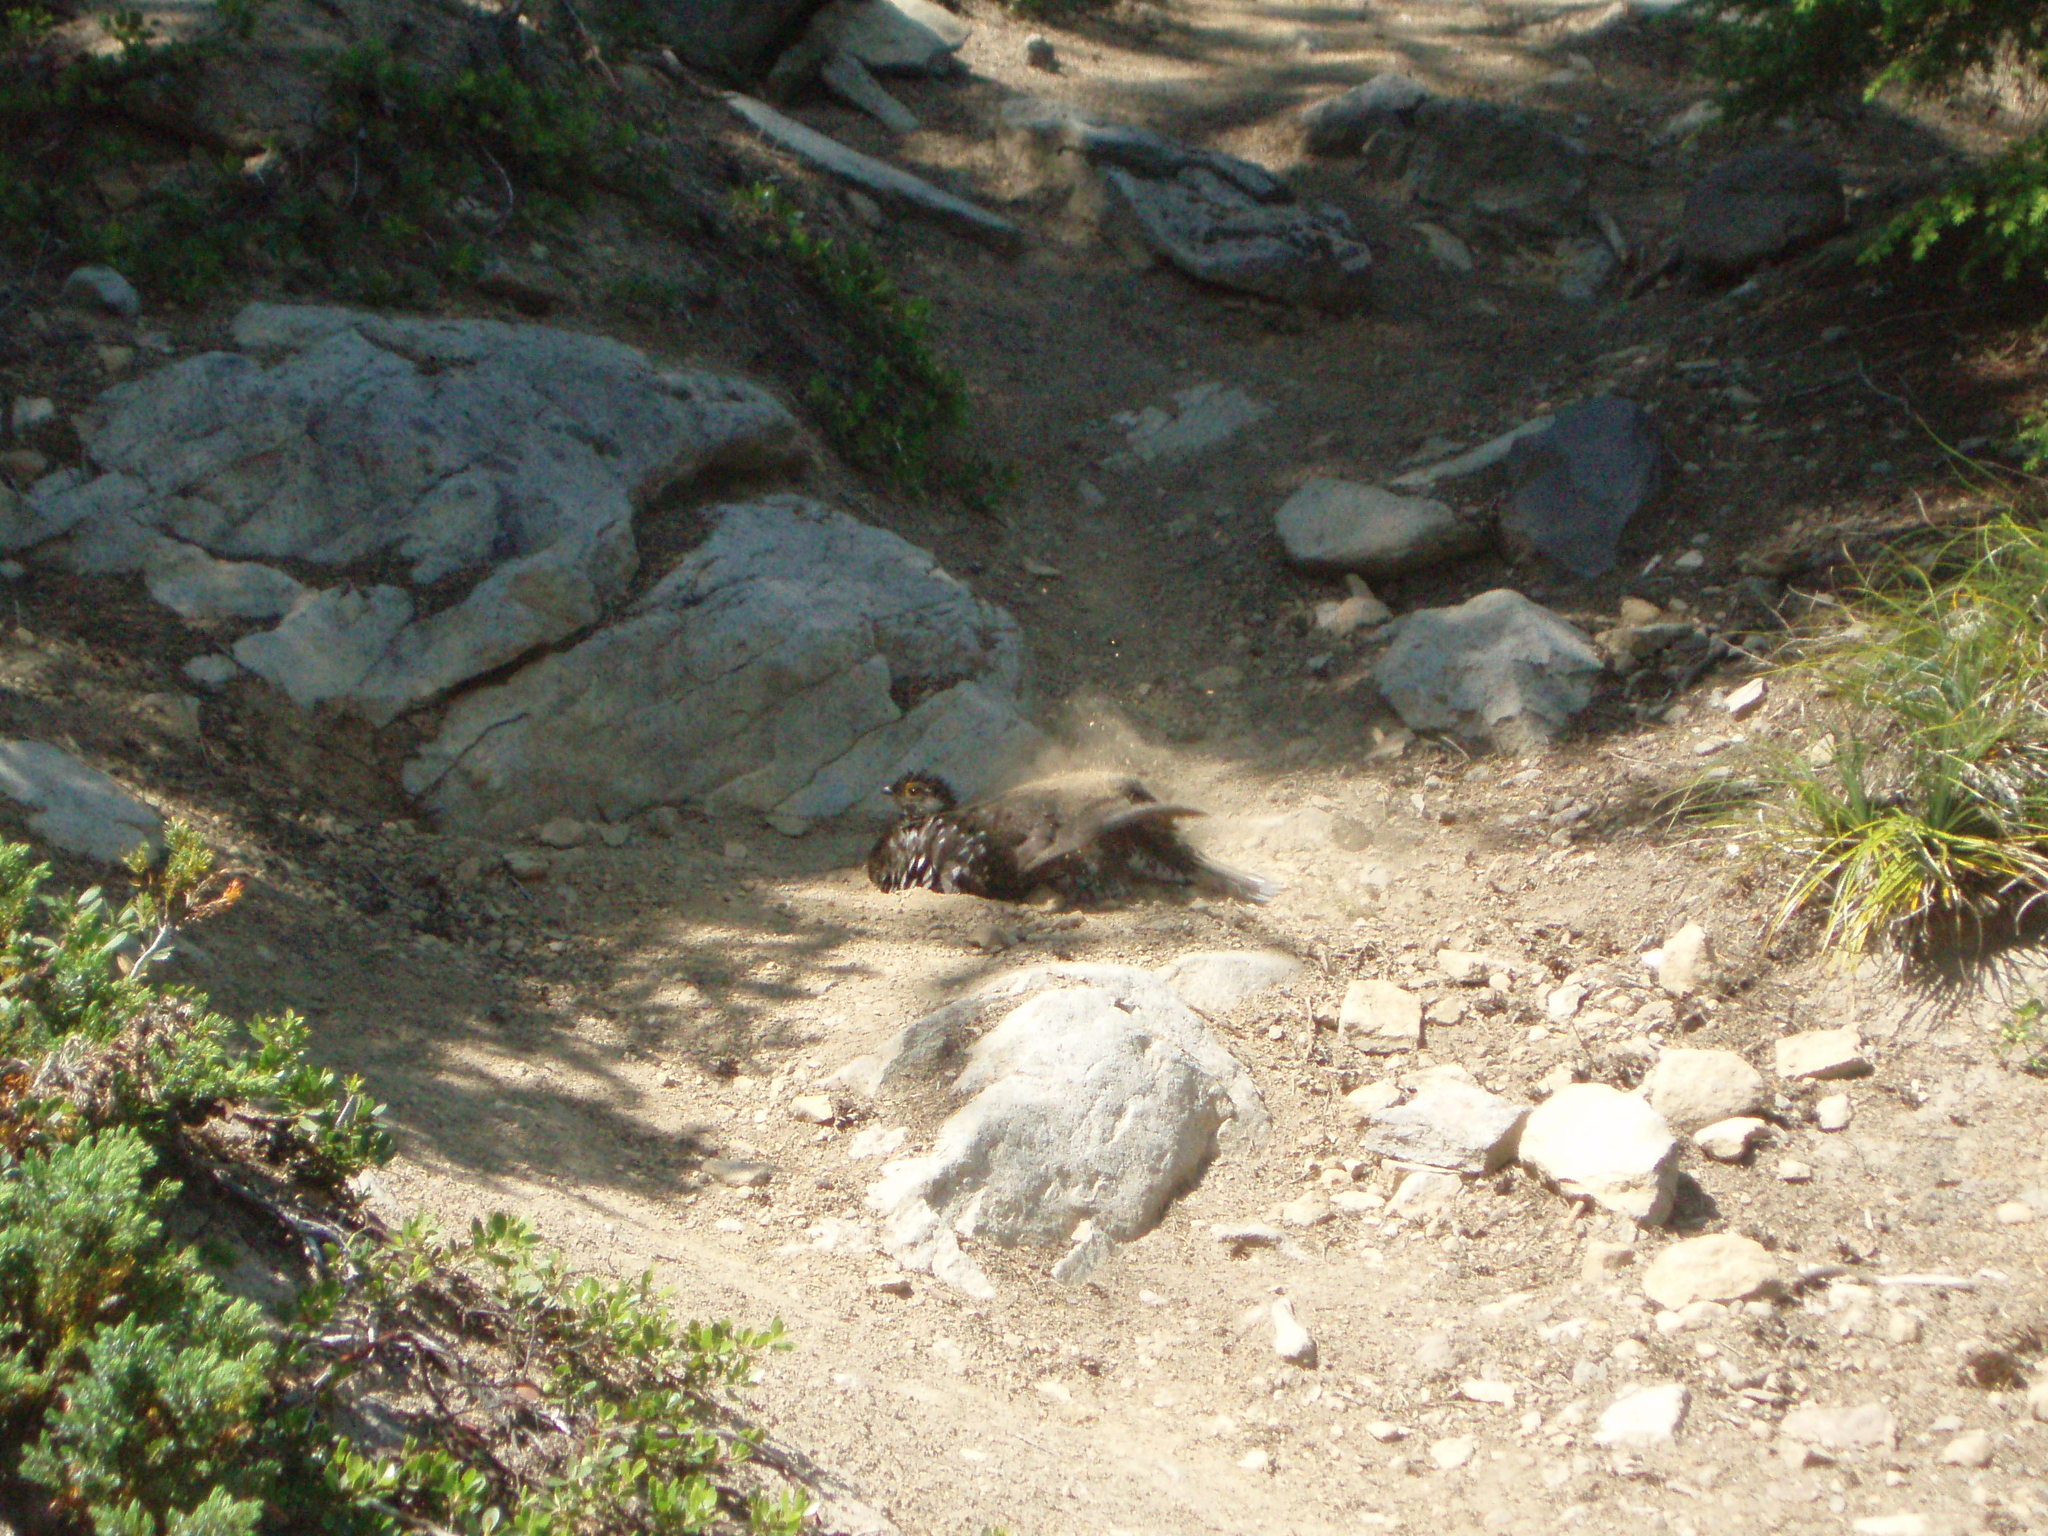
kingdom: Animalia
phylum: Chordata
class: Aves
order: Galliformes
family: Phasianidae
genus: Dendragapus
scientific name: Dendragapus fuliginosus
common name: Sooty grouse
